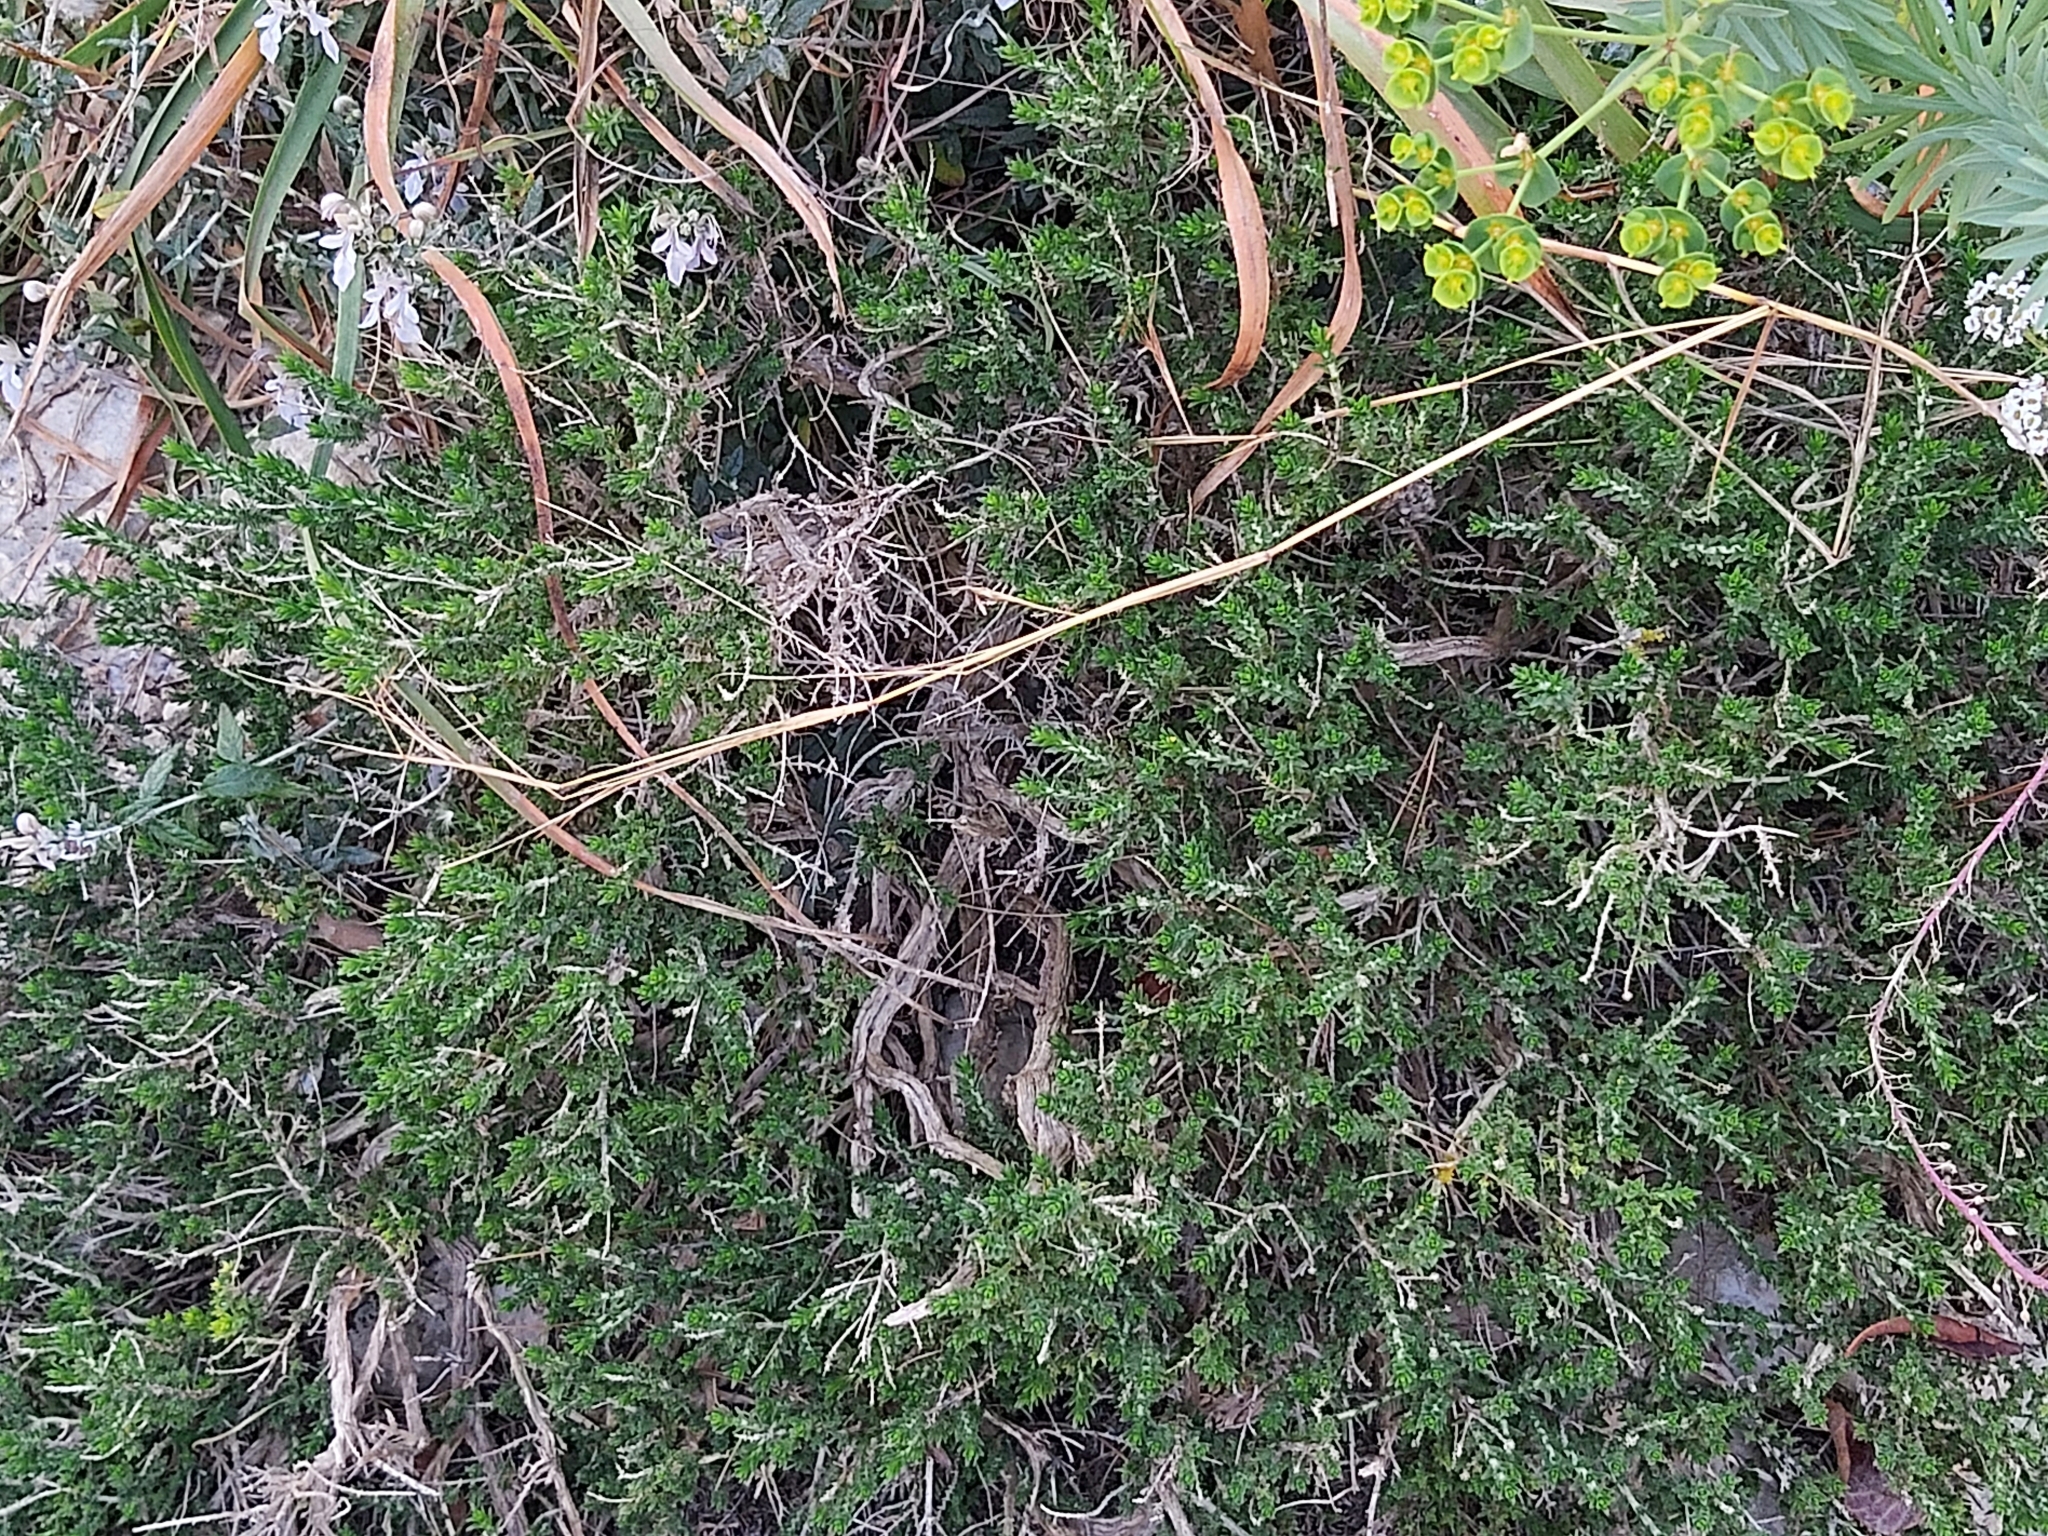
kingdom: Plantae
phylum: Tracheophyta
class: Magnoliopsida
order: Lamiales
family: Lamiaceae
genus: Thymbra
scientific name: Thymbra capitata
